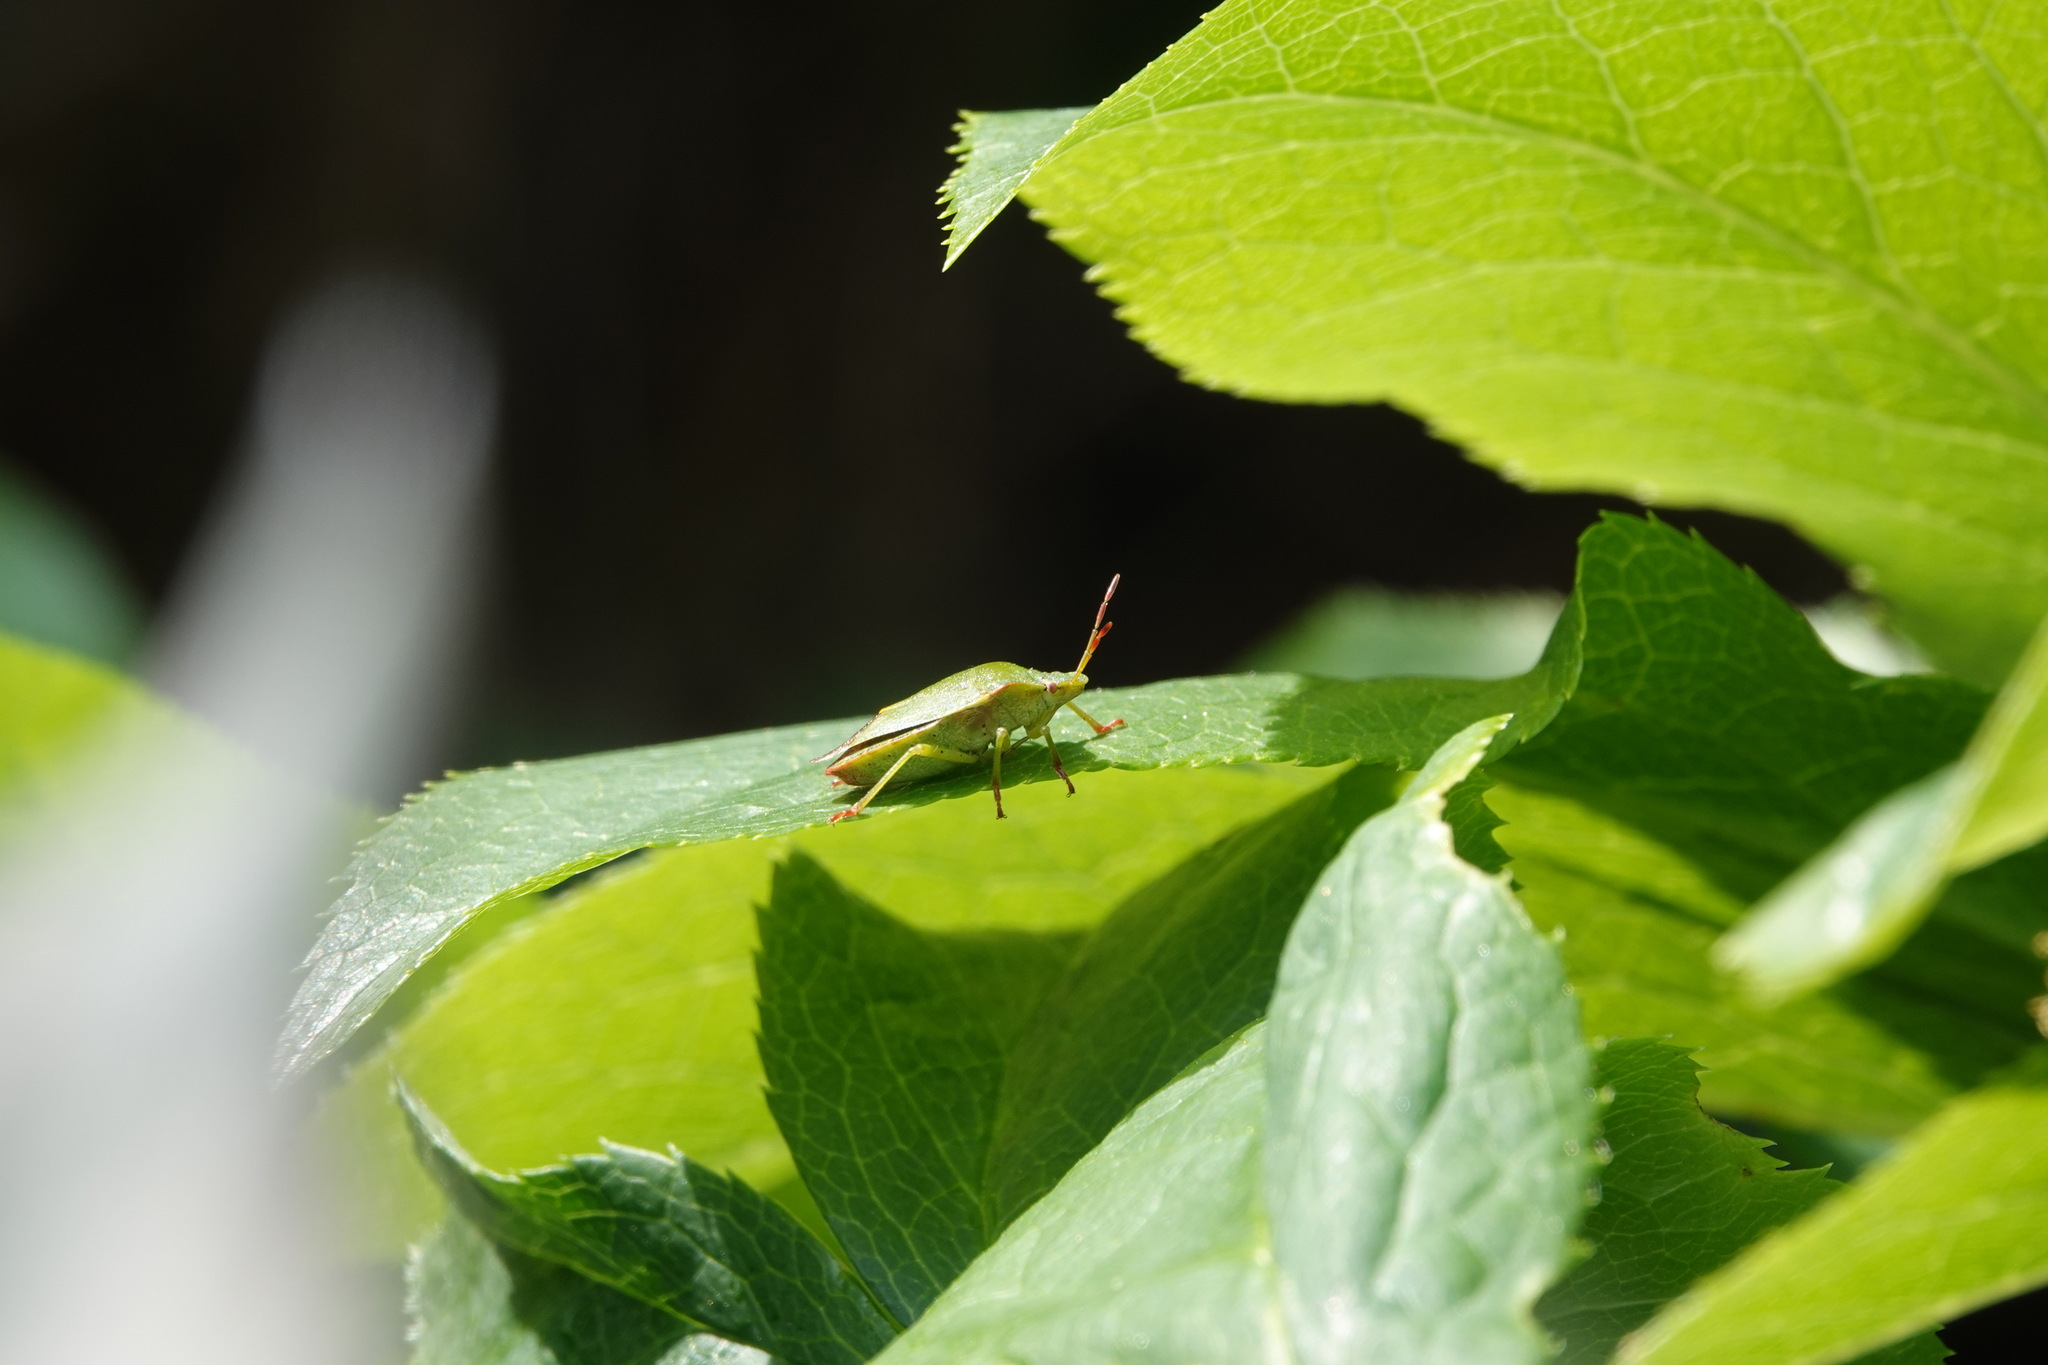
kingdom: Animalia
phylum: Arthropoda
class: Insecta
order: Hemiptera
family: Pentatomidae
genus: Palomena
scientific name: Palomena prasina
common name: Green shieldbug
